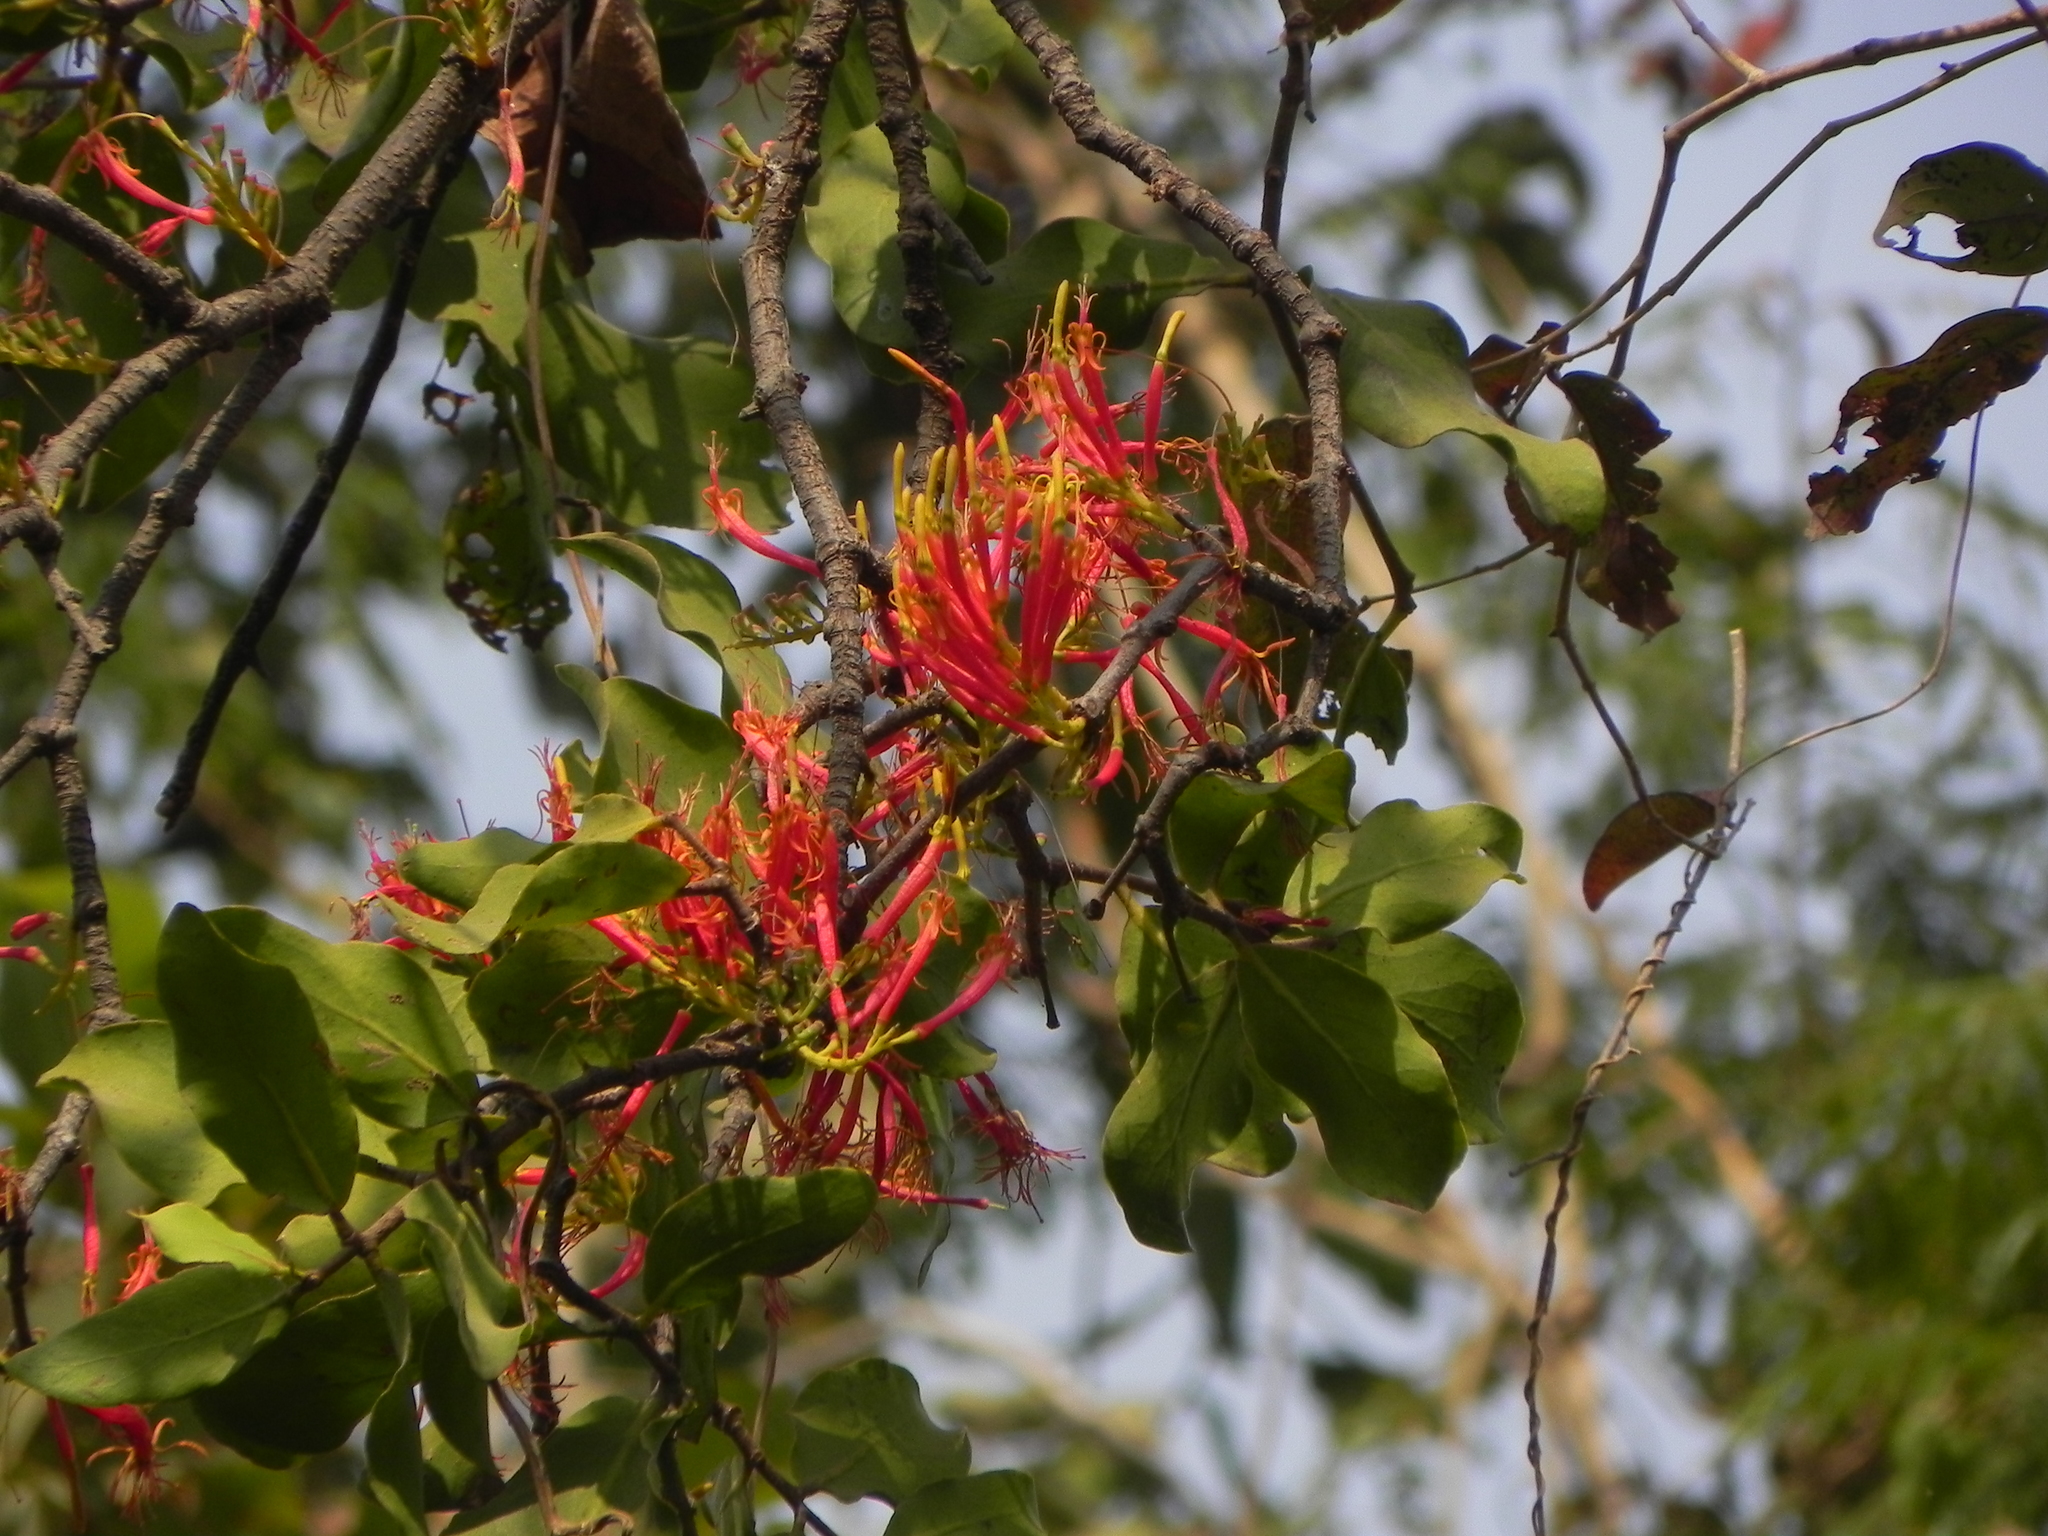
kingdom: Plantae
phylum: Tracheophyta
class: Magnoliopsida
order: Santalales
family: Loranthaceae
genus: Dendrophthoe
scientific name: Dendrophthoe falcata
